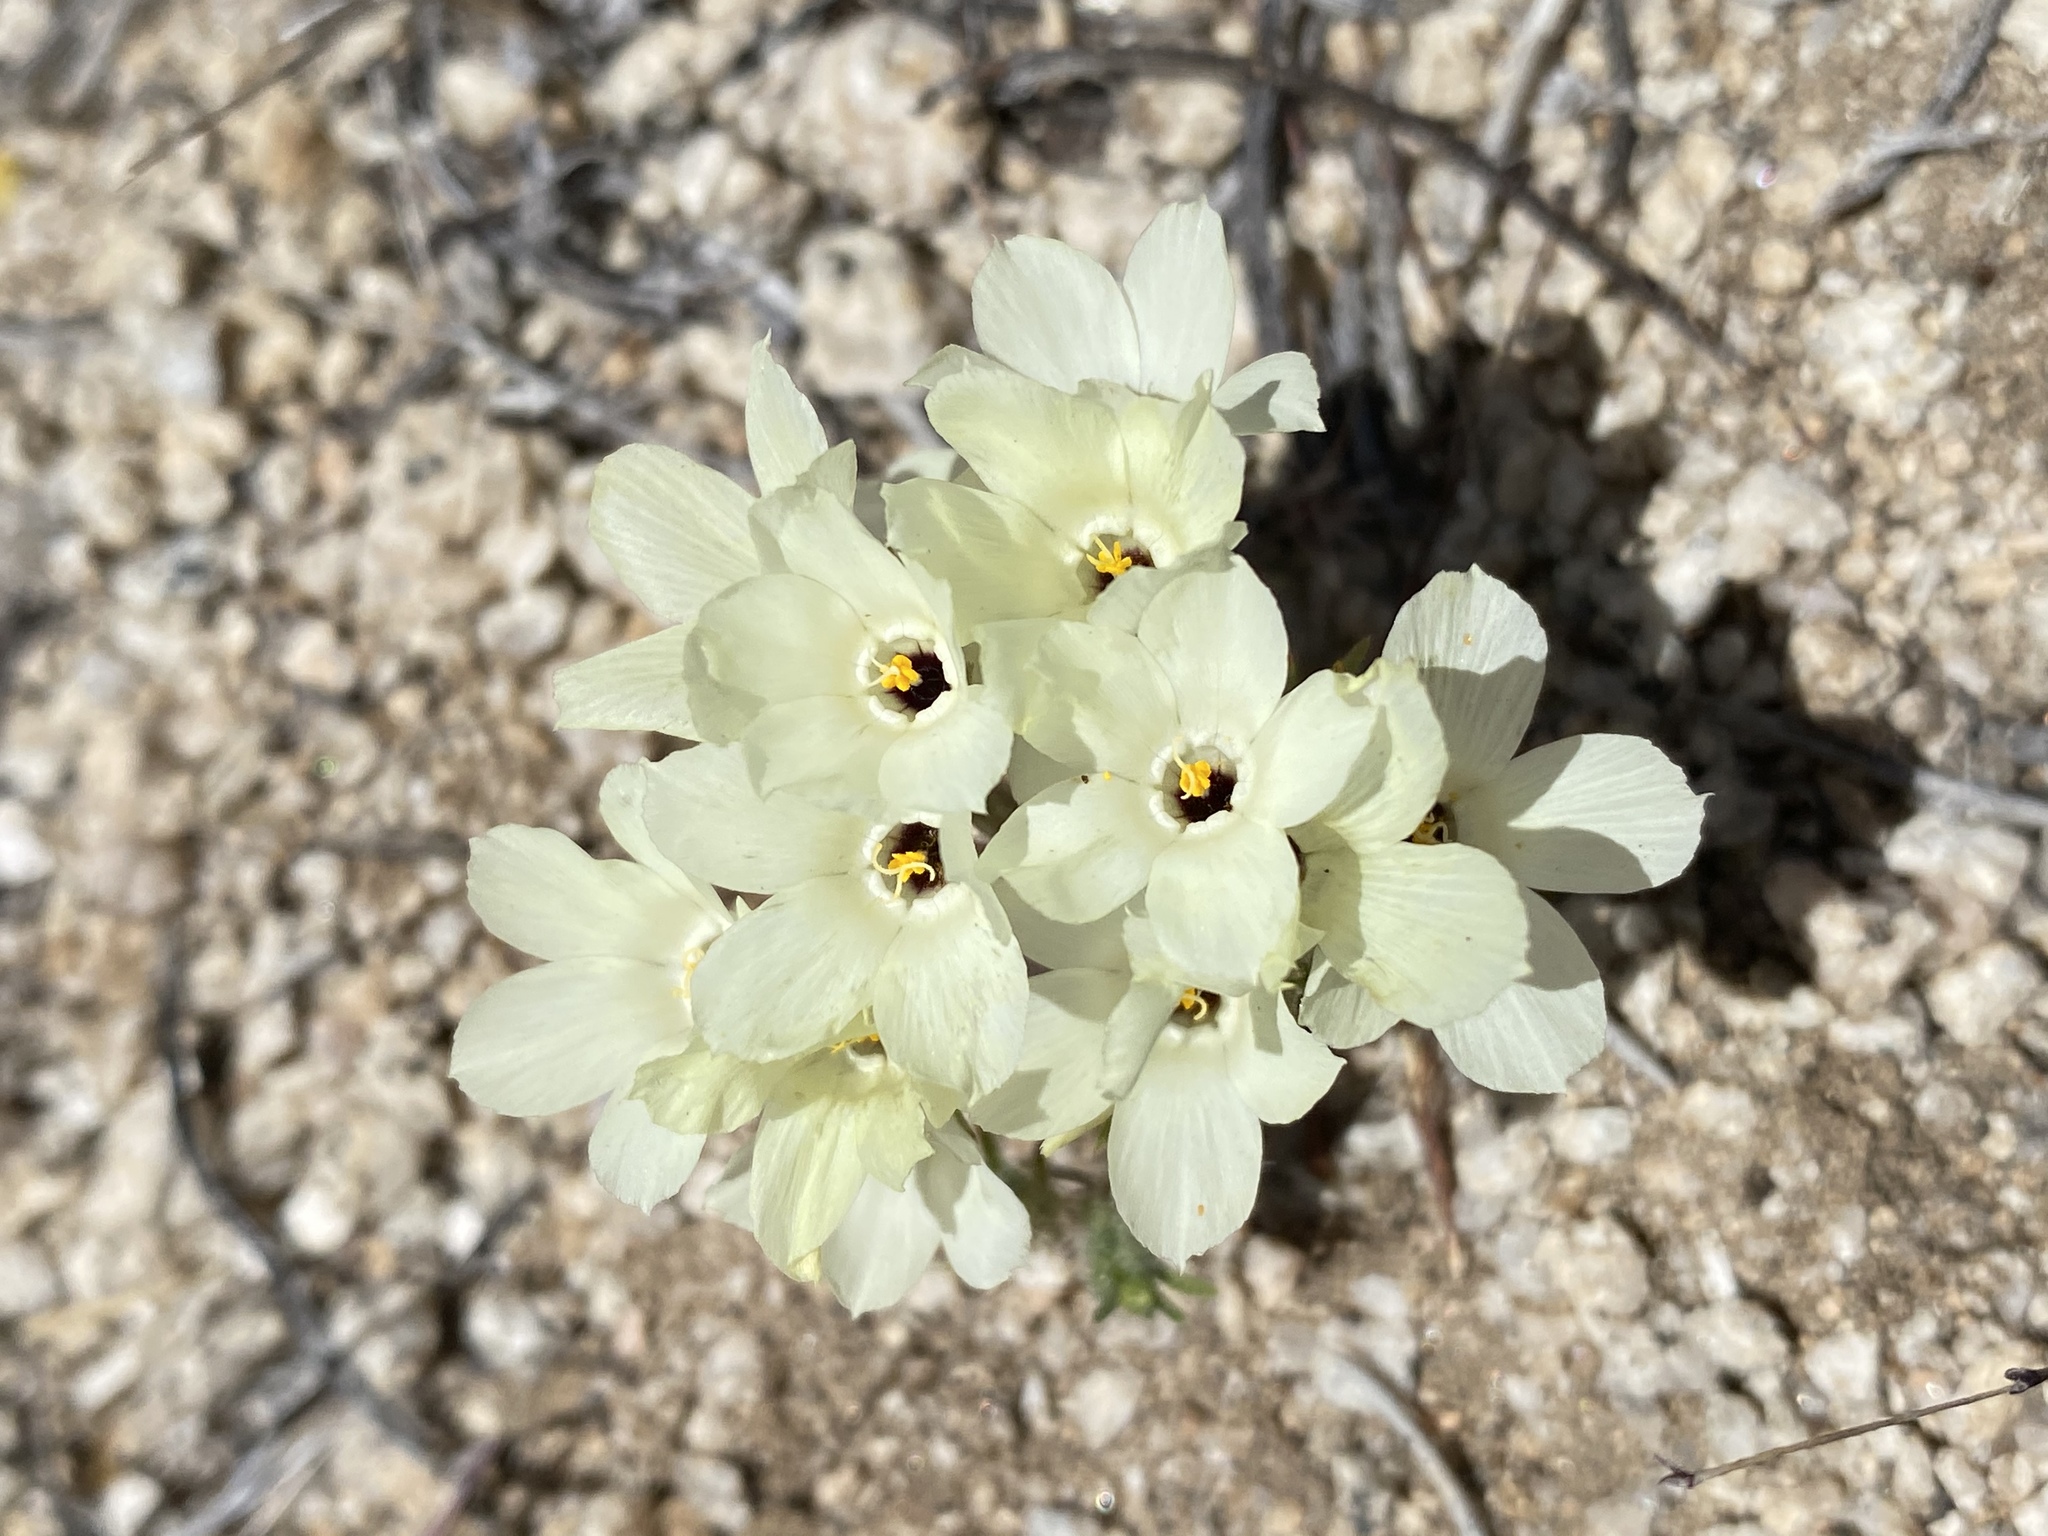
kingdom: Plantae
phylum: Tracheophyta
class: Magnoliopsida
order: Ericales
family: Polemoniaceae
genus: Linanthus
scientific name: Linanthus parryae
